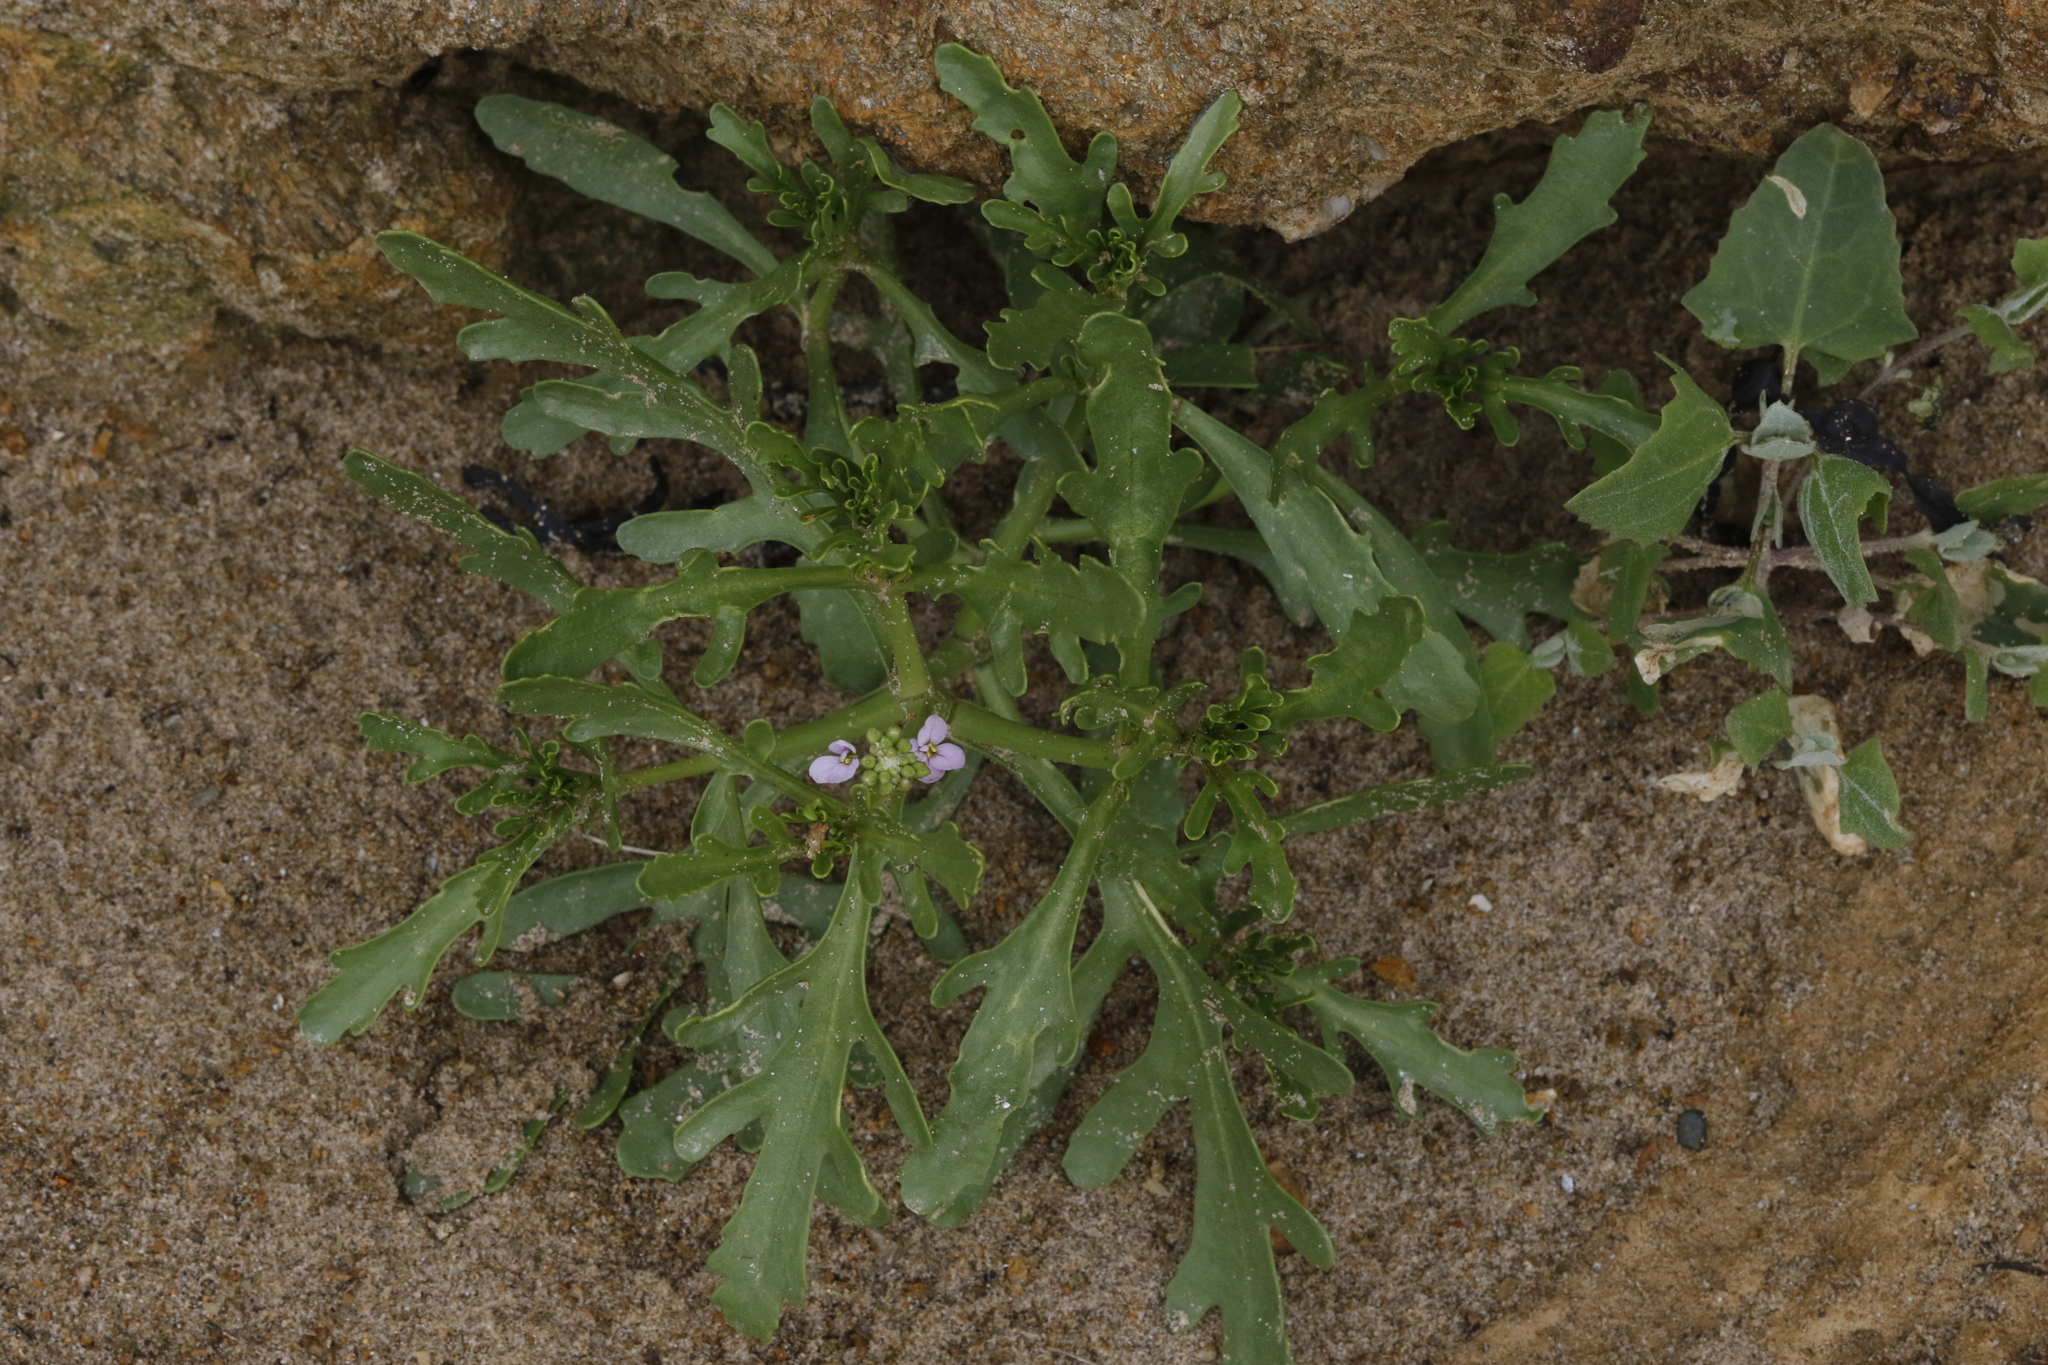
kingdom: Plantae
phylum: Tracheophyta
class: Magnoliopsida
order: Brassicales
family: Brassicaceae
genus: Cakile
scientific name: Cakile maritima
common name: Sea rocket
